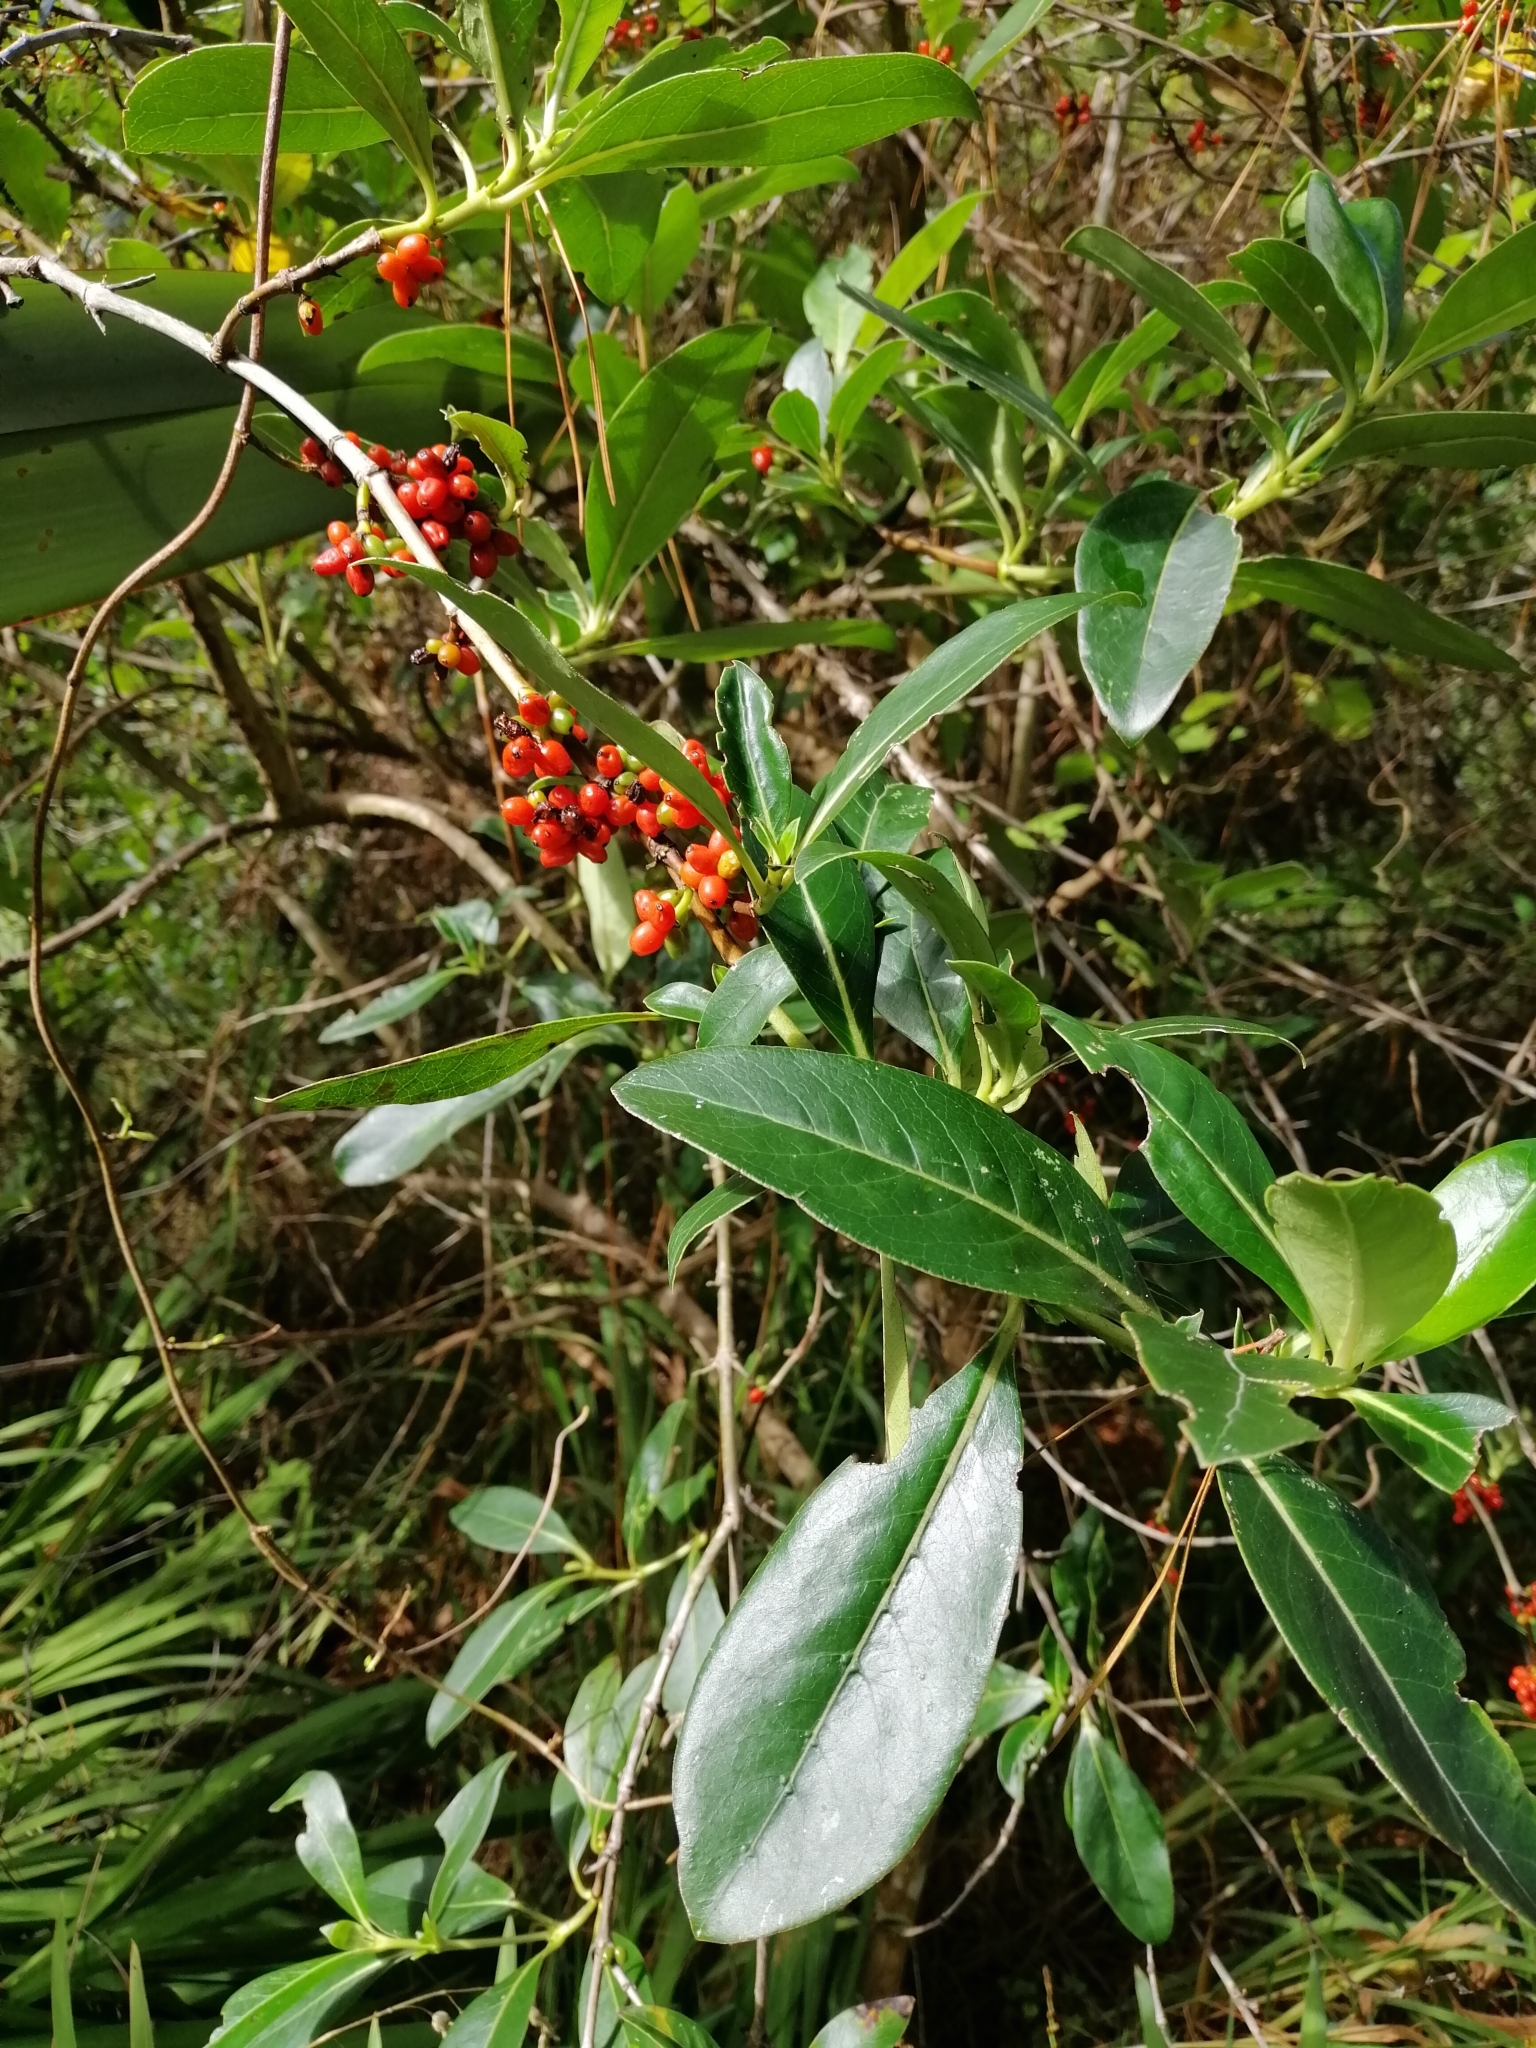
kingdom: Plantae
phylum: Tracheophyta
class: Magnoliopsida
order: Gentianales
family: Rubiaceae
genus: Coprosma
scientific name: Coprosma robusta
